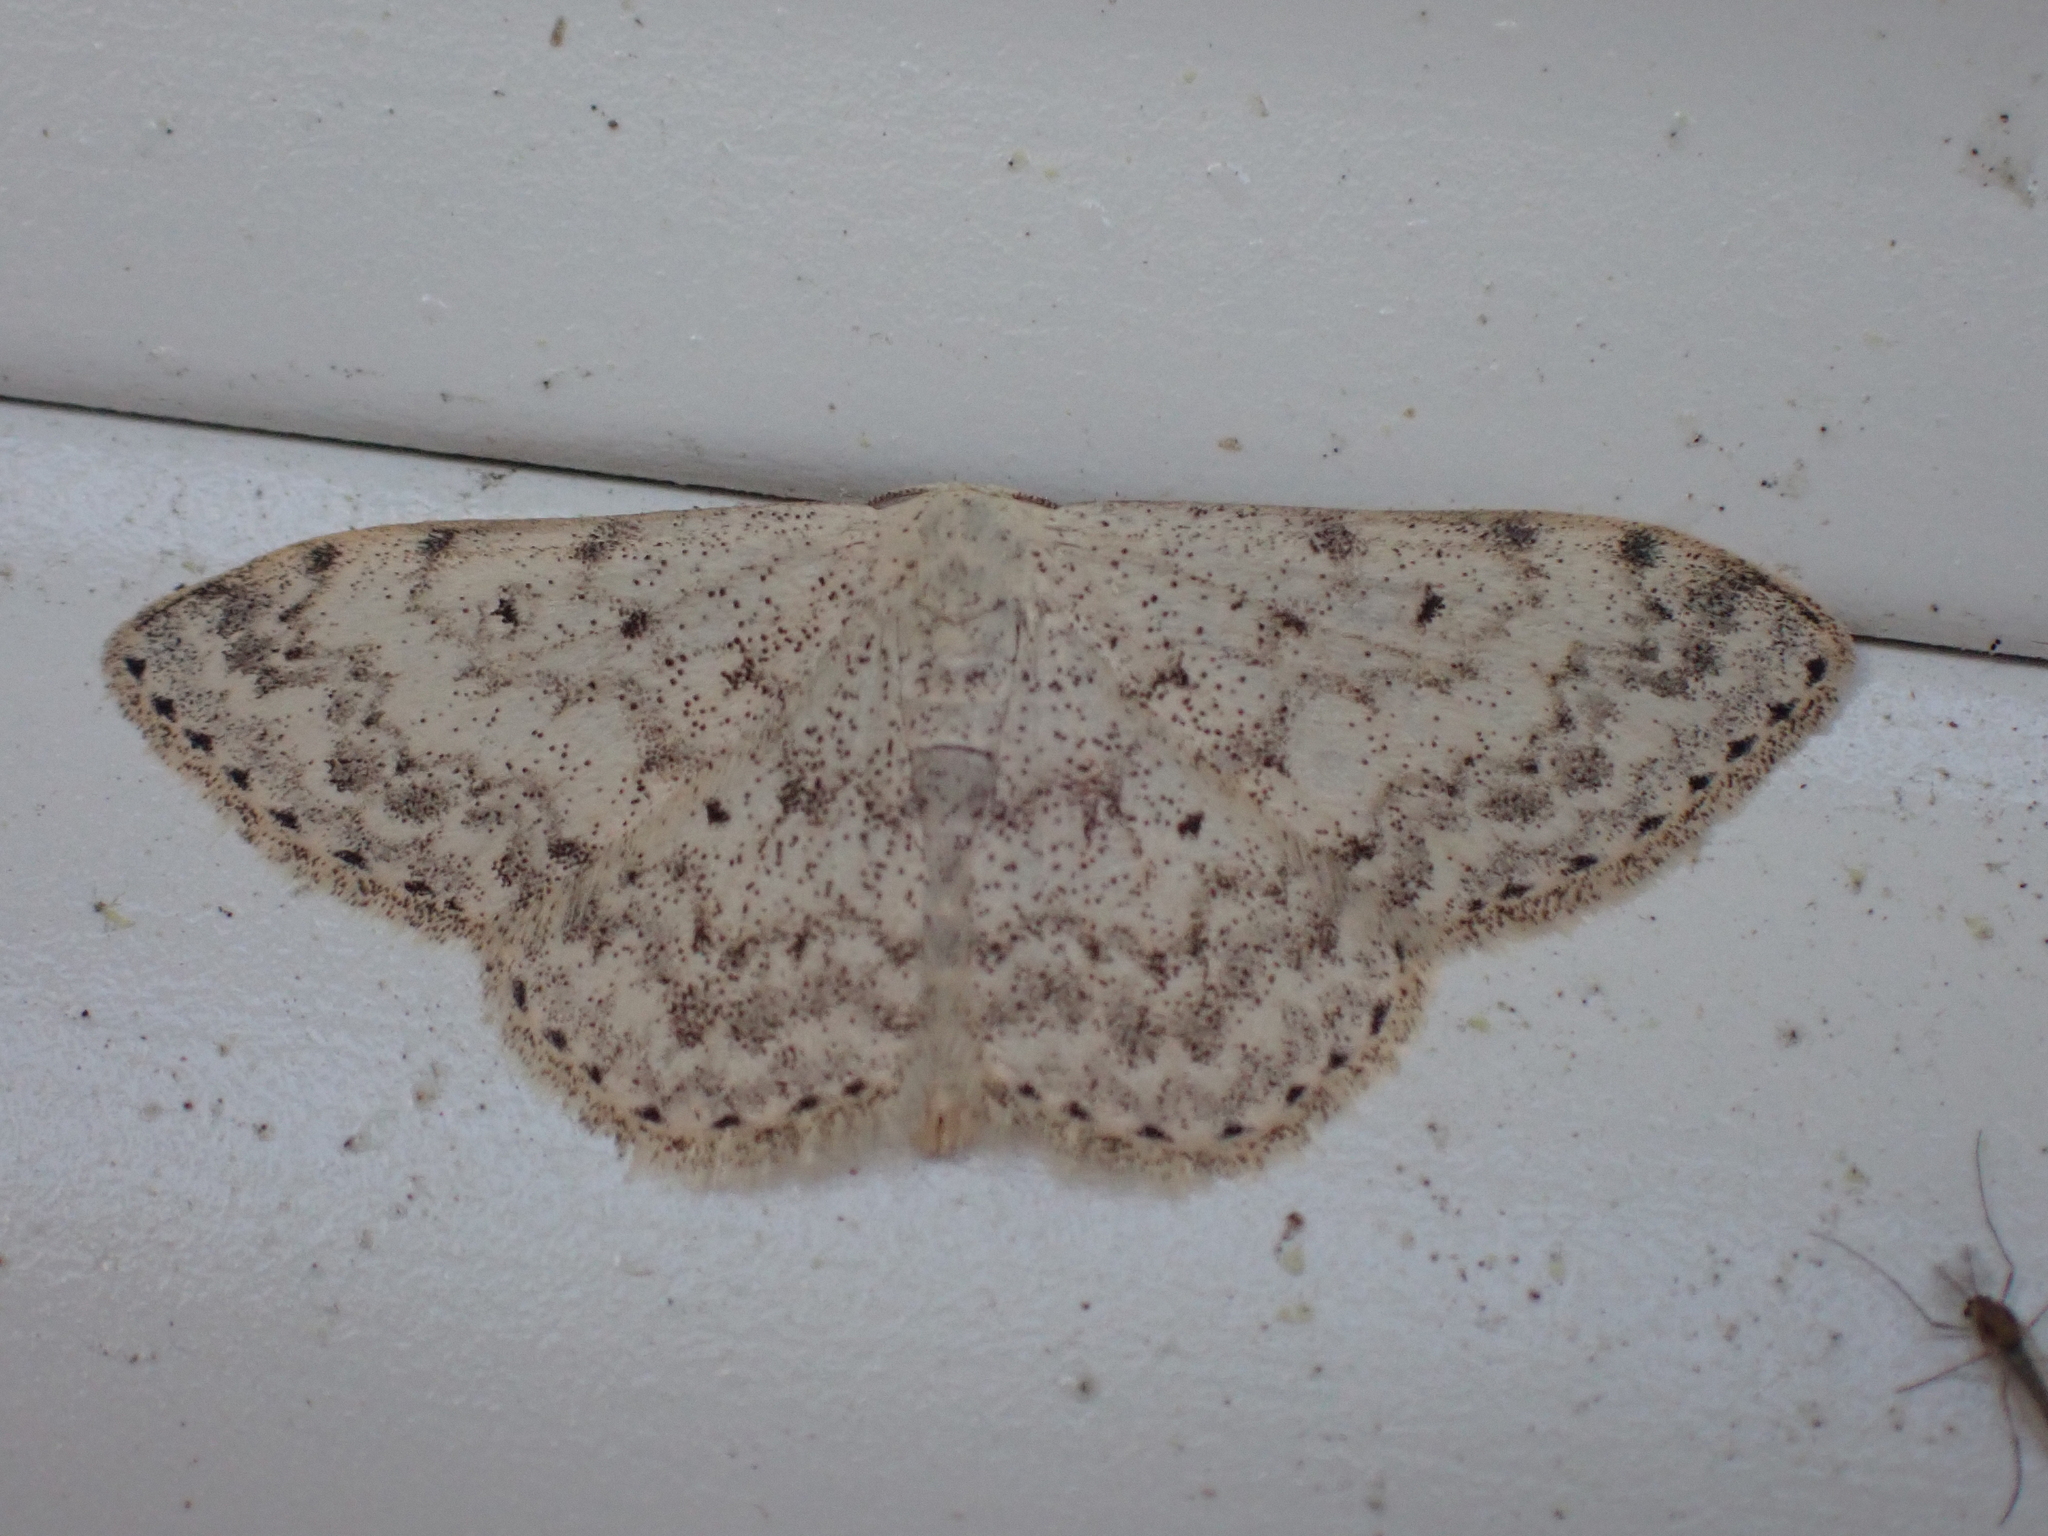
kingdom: Animalia
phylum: Arthropoda
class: Insecta
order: Lepidoptera
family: Geometridae
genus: Scopula
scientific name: Scopula marginepunctata
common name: Mullein wave
